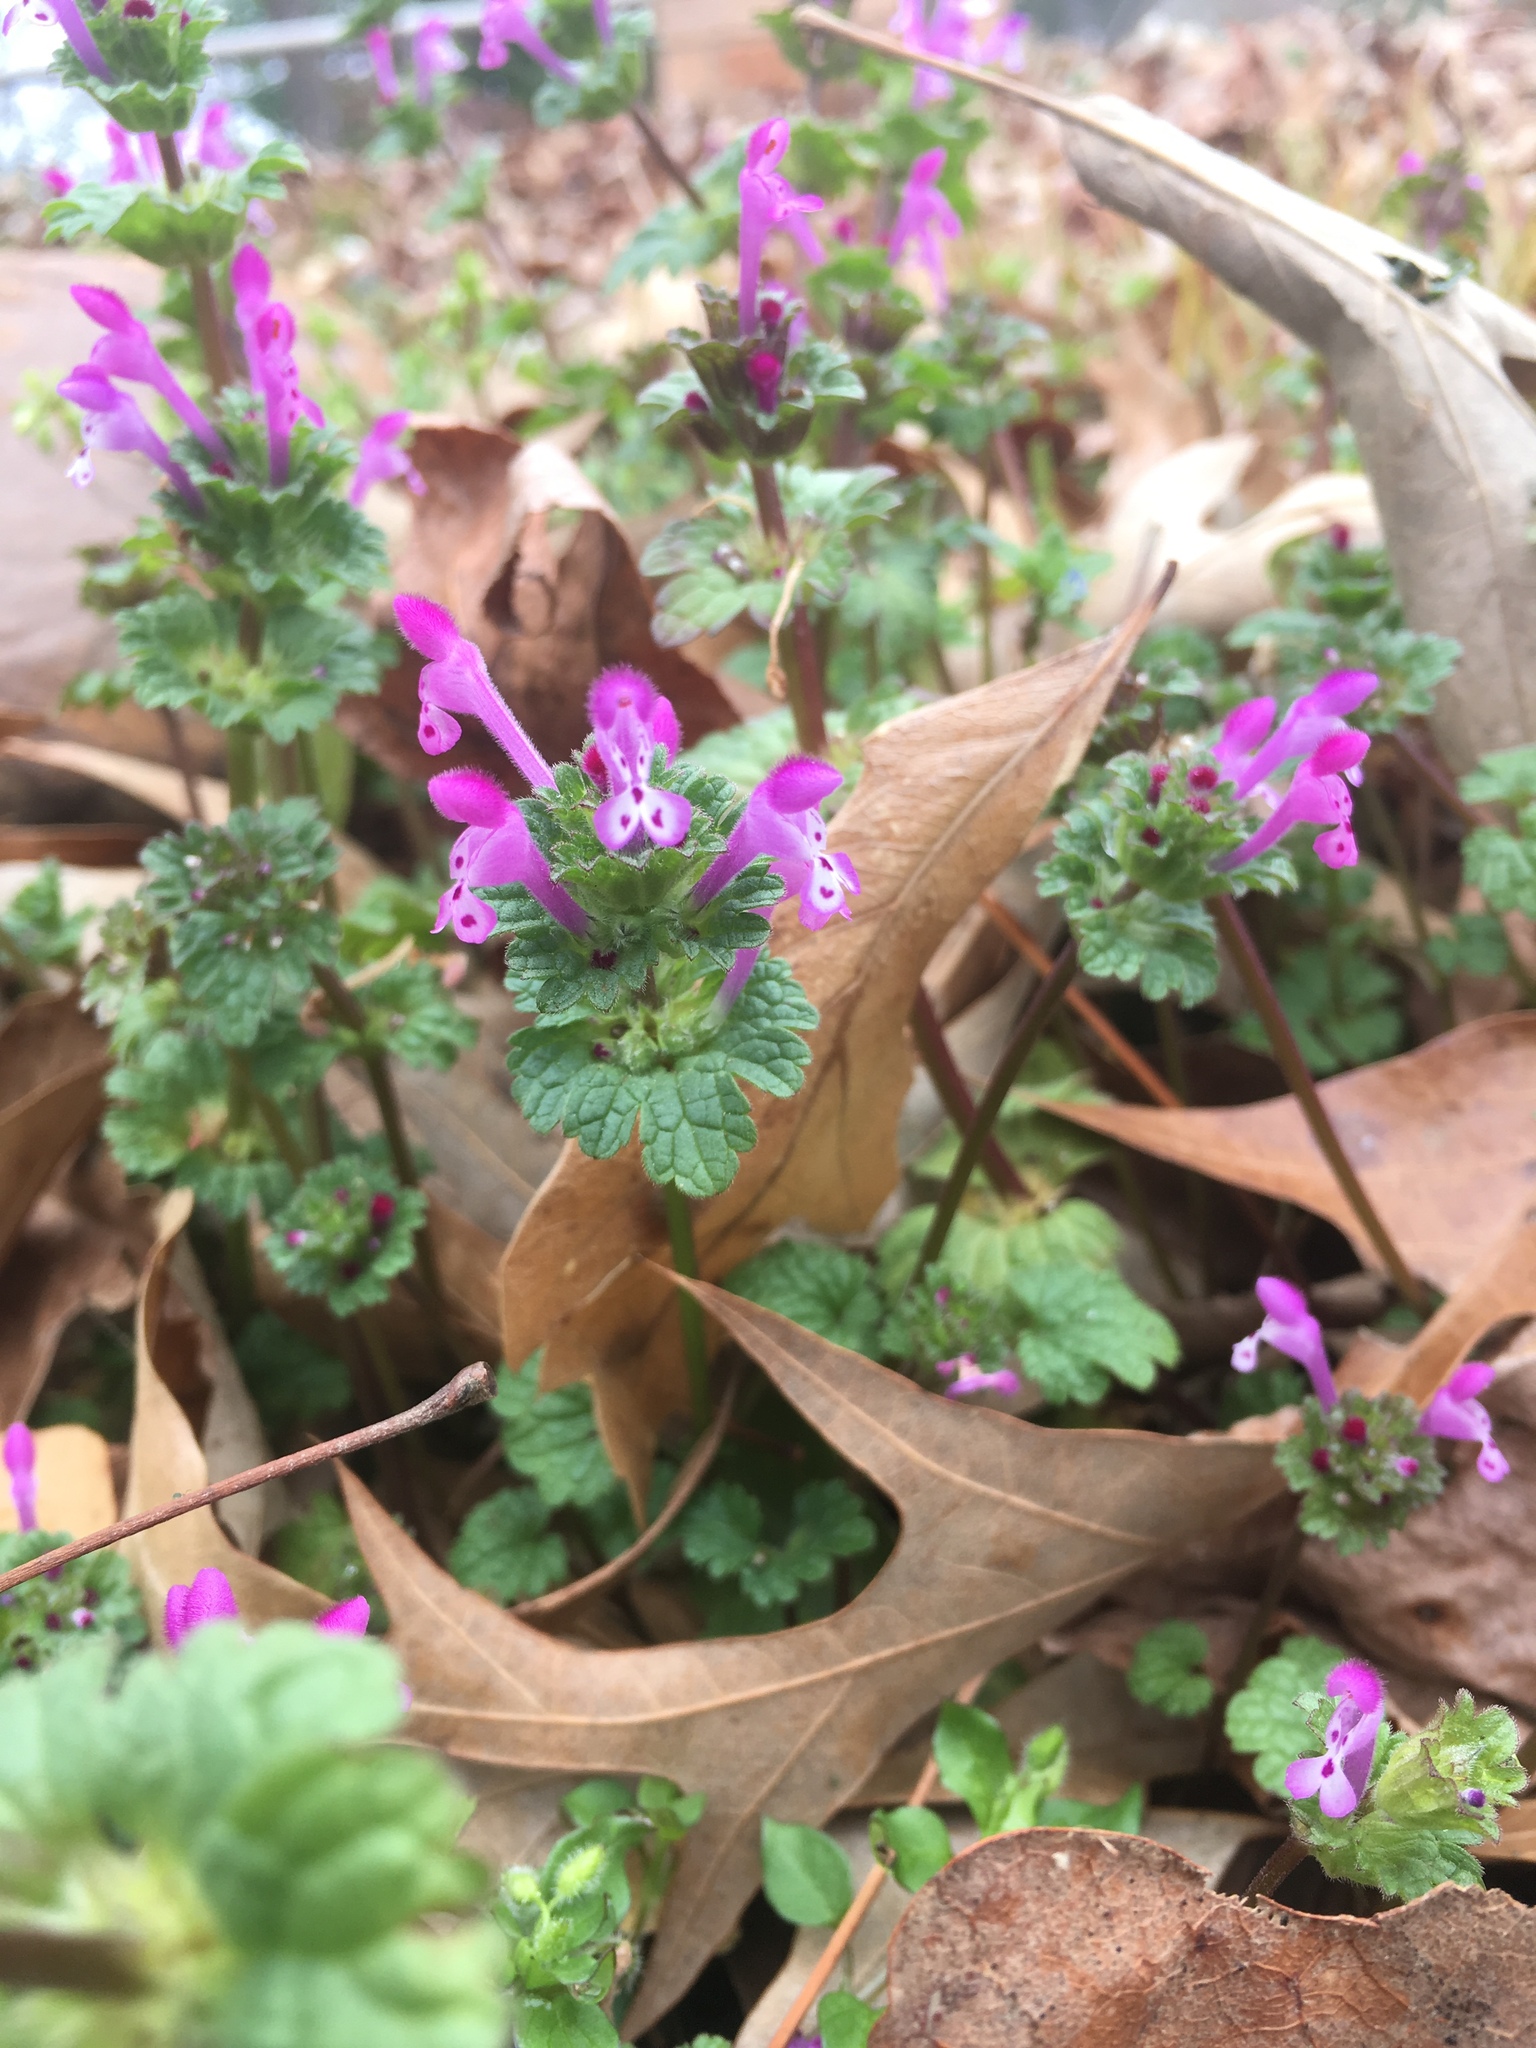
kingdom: Plantae
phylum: Tracheophyta
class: Magnoliopsida
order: Lamiales
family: Lamiaceae
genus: Lamium
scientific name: Lamium amplexicaule
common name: Henbit dead-nettle
